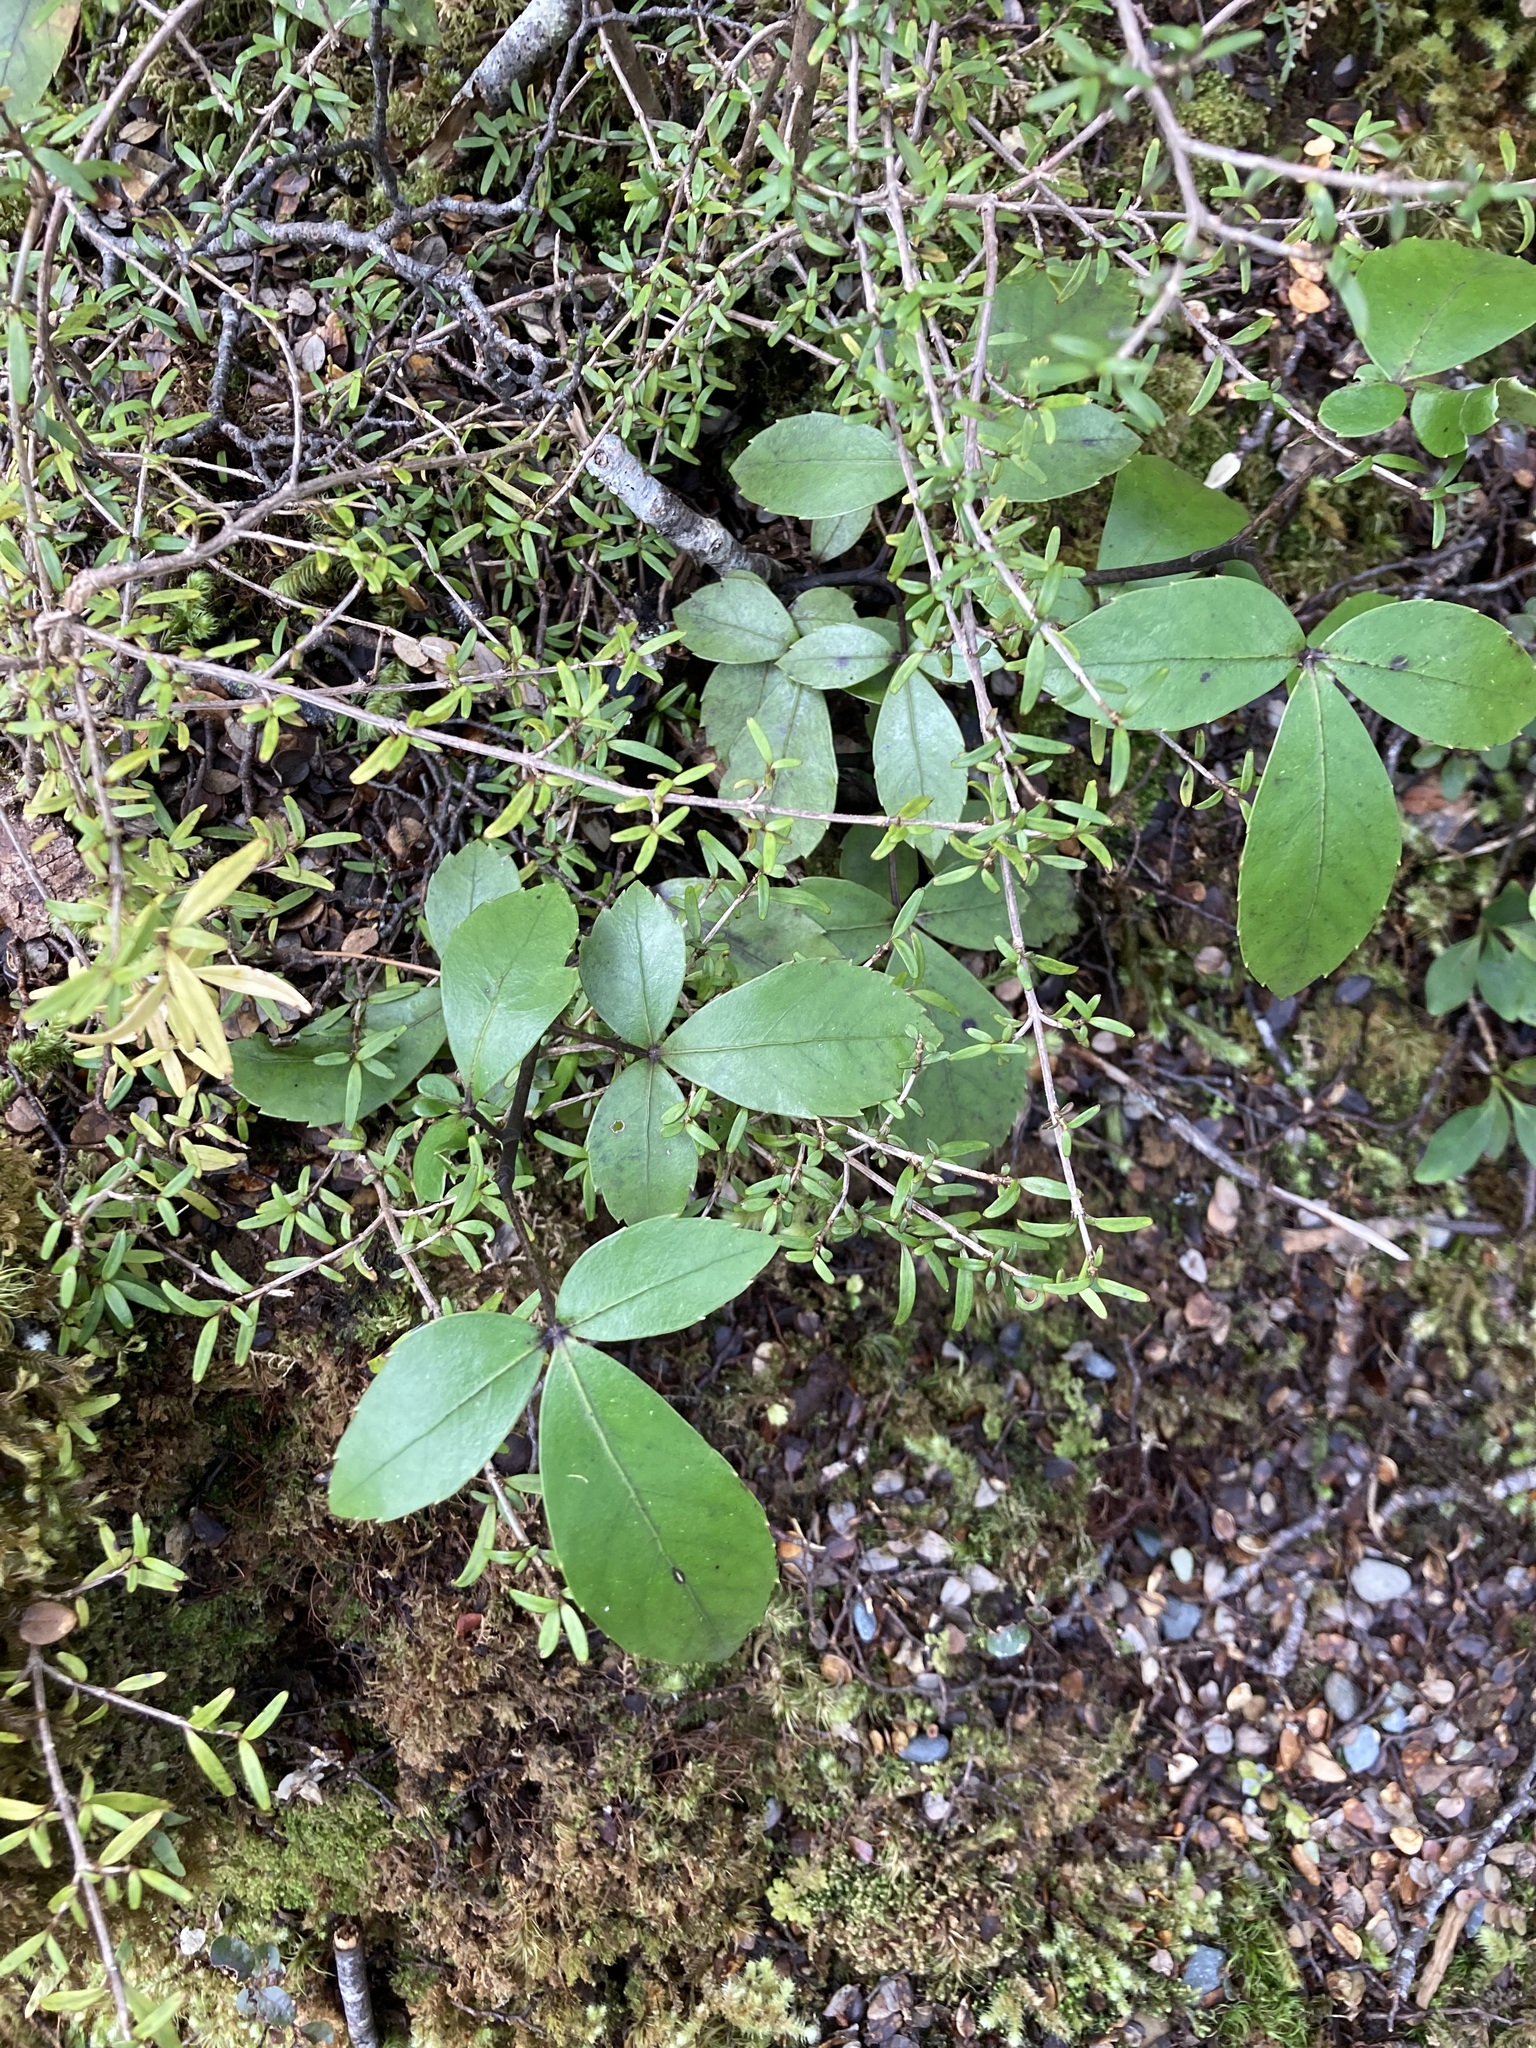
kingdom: Plantae
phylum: Tracheophyta
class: Magnoliopsida
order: Apiales
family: Araliaceae
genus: Neopanax
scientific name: Neopanax colensoi
